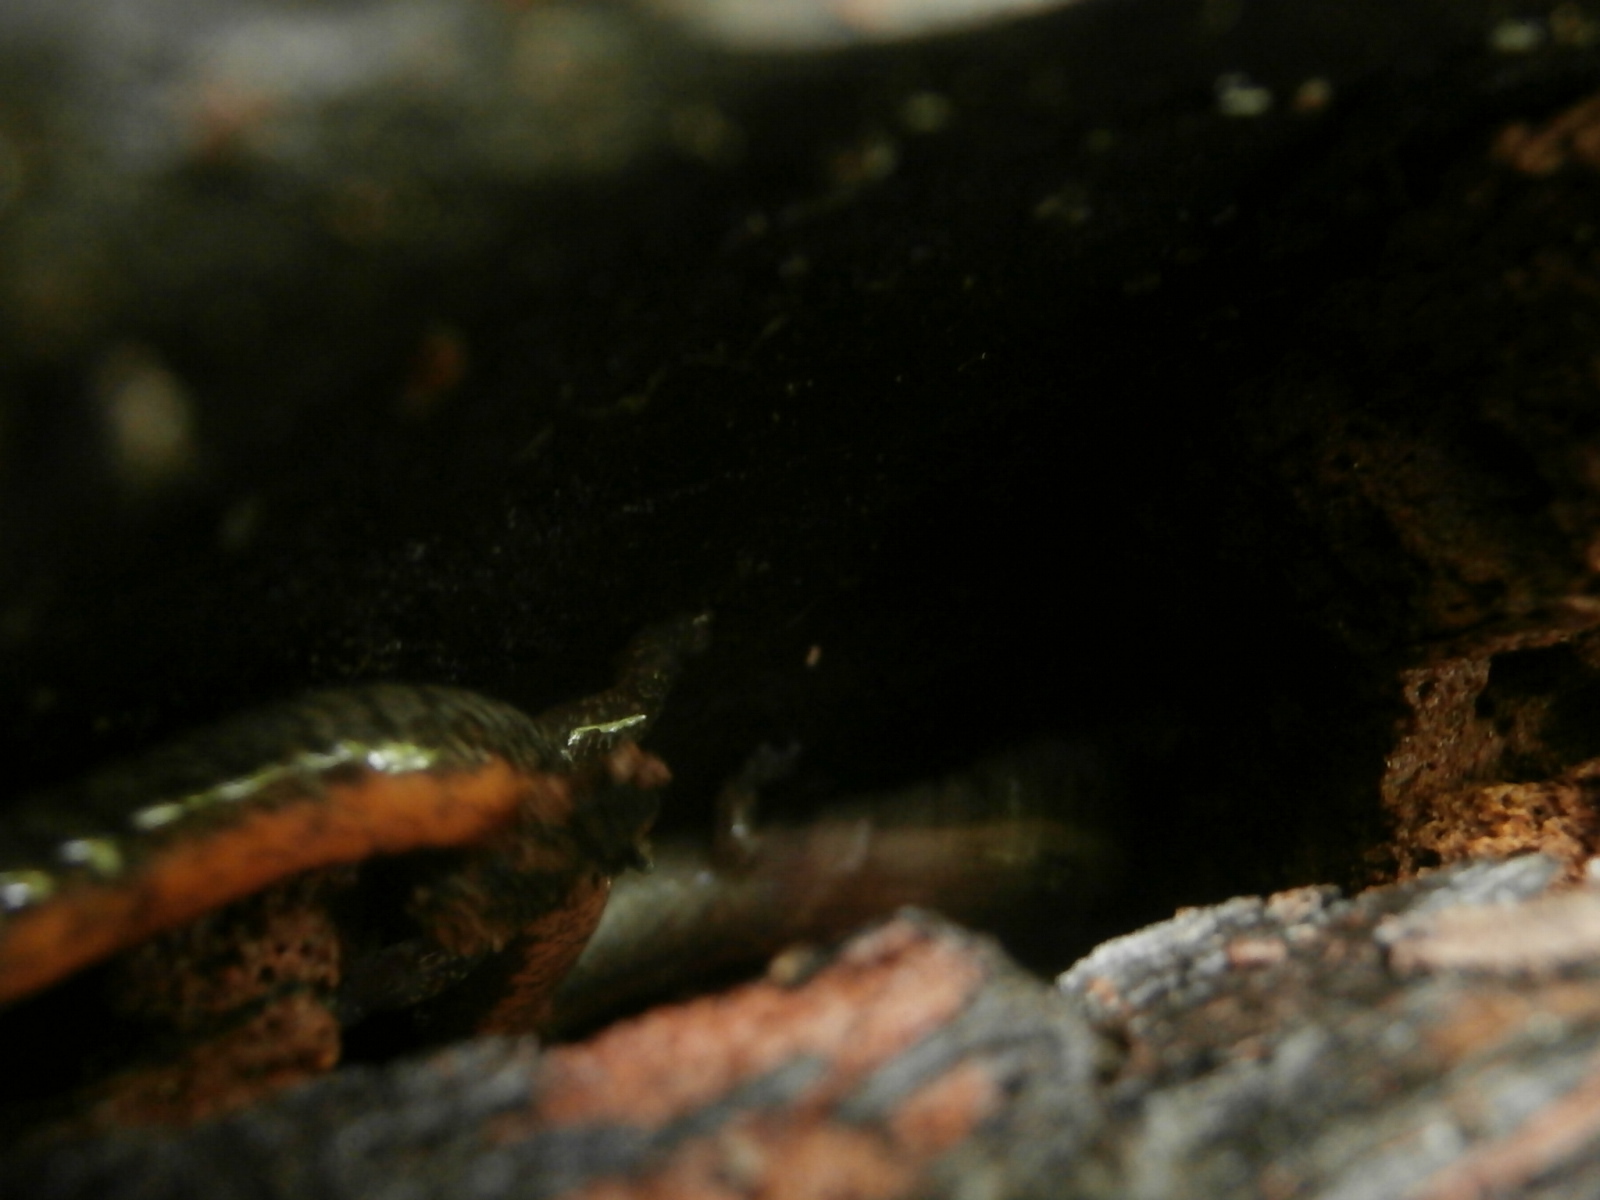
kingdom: Animalia
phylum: Chordata
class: Amphibia
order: Caudata
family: Plethodontidae
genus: Plethodon
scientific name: Plethodon cinereus
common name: Redback salamander
